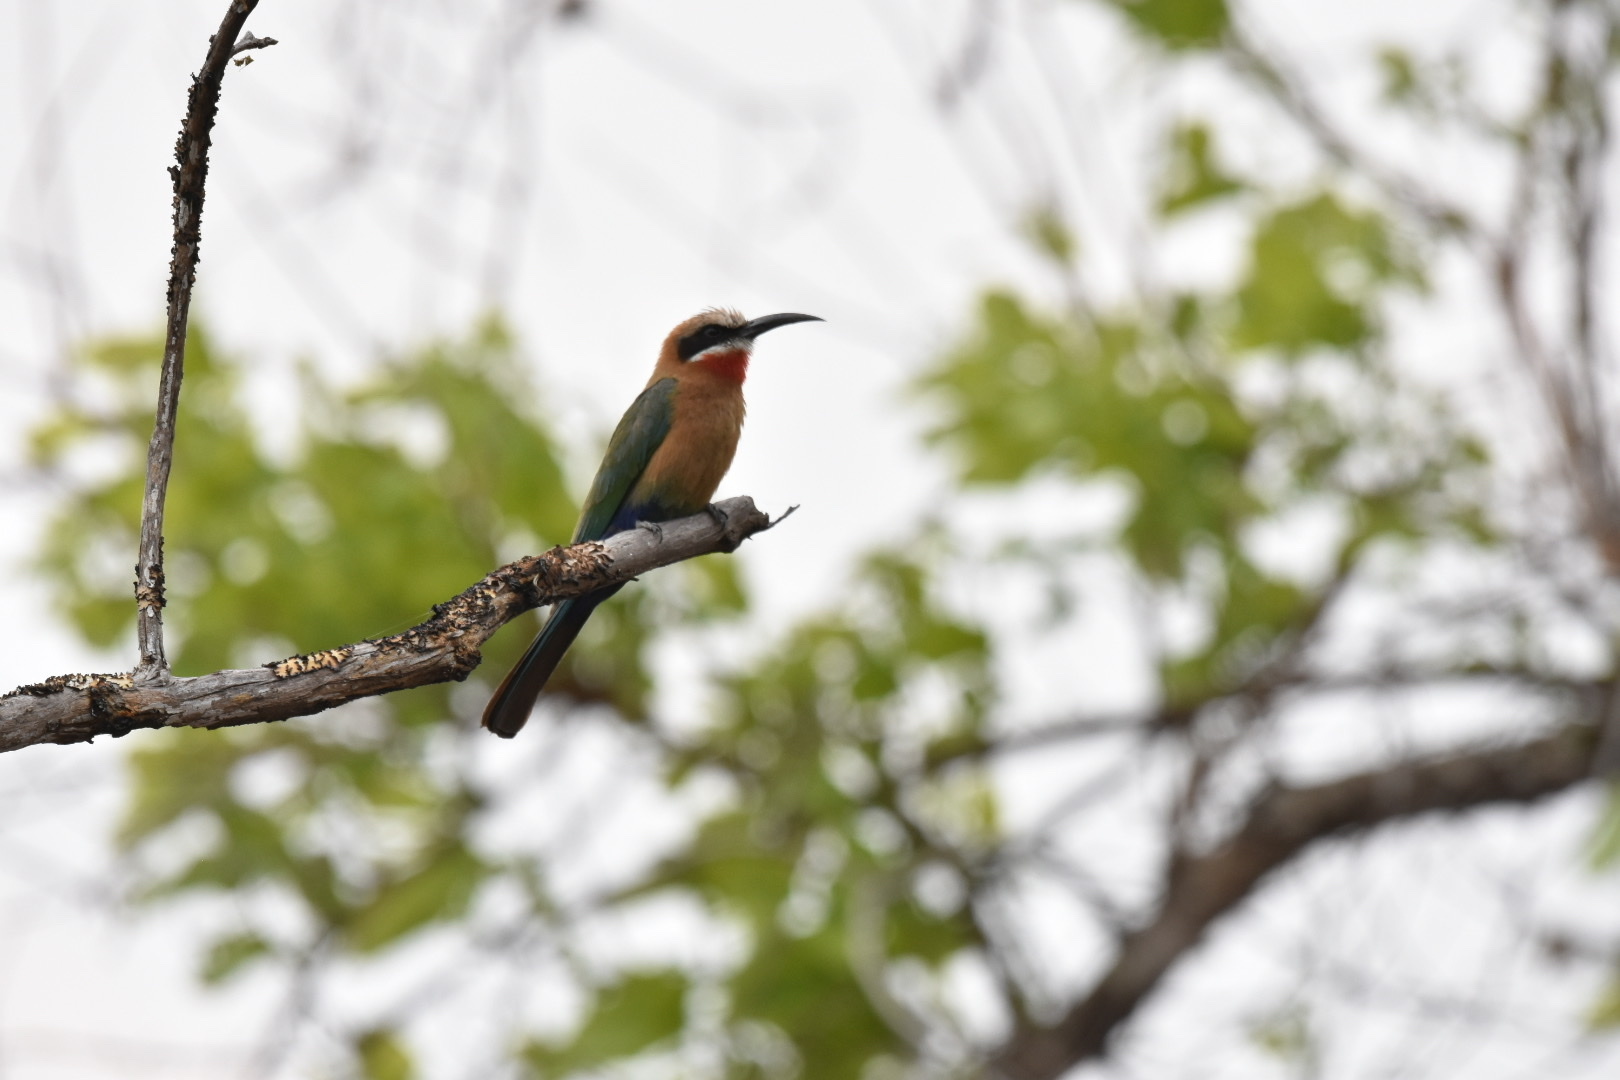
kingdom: Animalia
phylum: Chordata
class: Aves
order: Coraciiformes
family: Meropidae
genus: Merops
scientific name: Merops bullockoides
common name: White-fronted bee-eater
